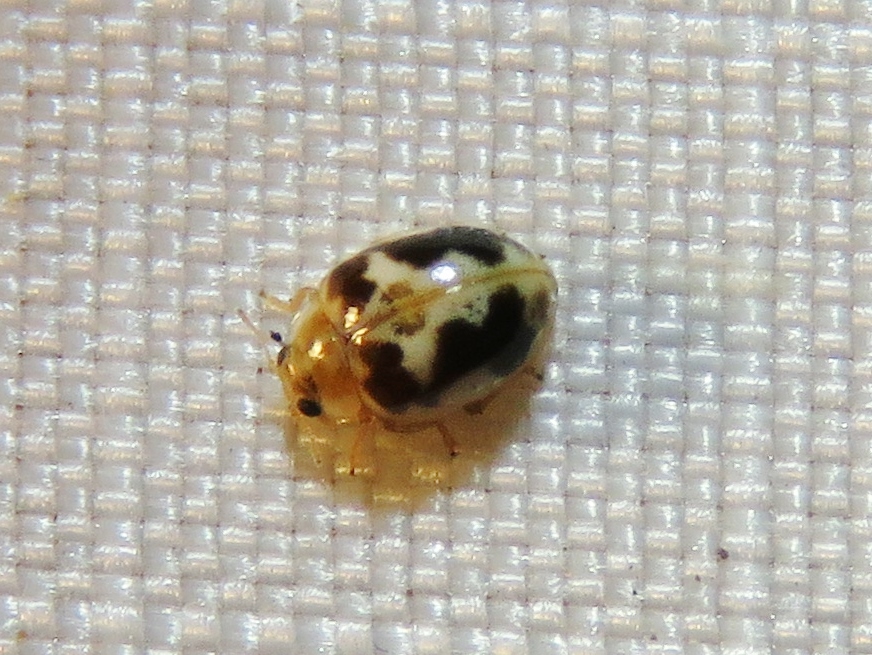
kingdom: Animalia
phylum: Arthropoda
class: Insecta
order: Coleoptera
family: Coccinellidae
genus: Psyllobora
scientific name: Psyllobora renifer
